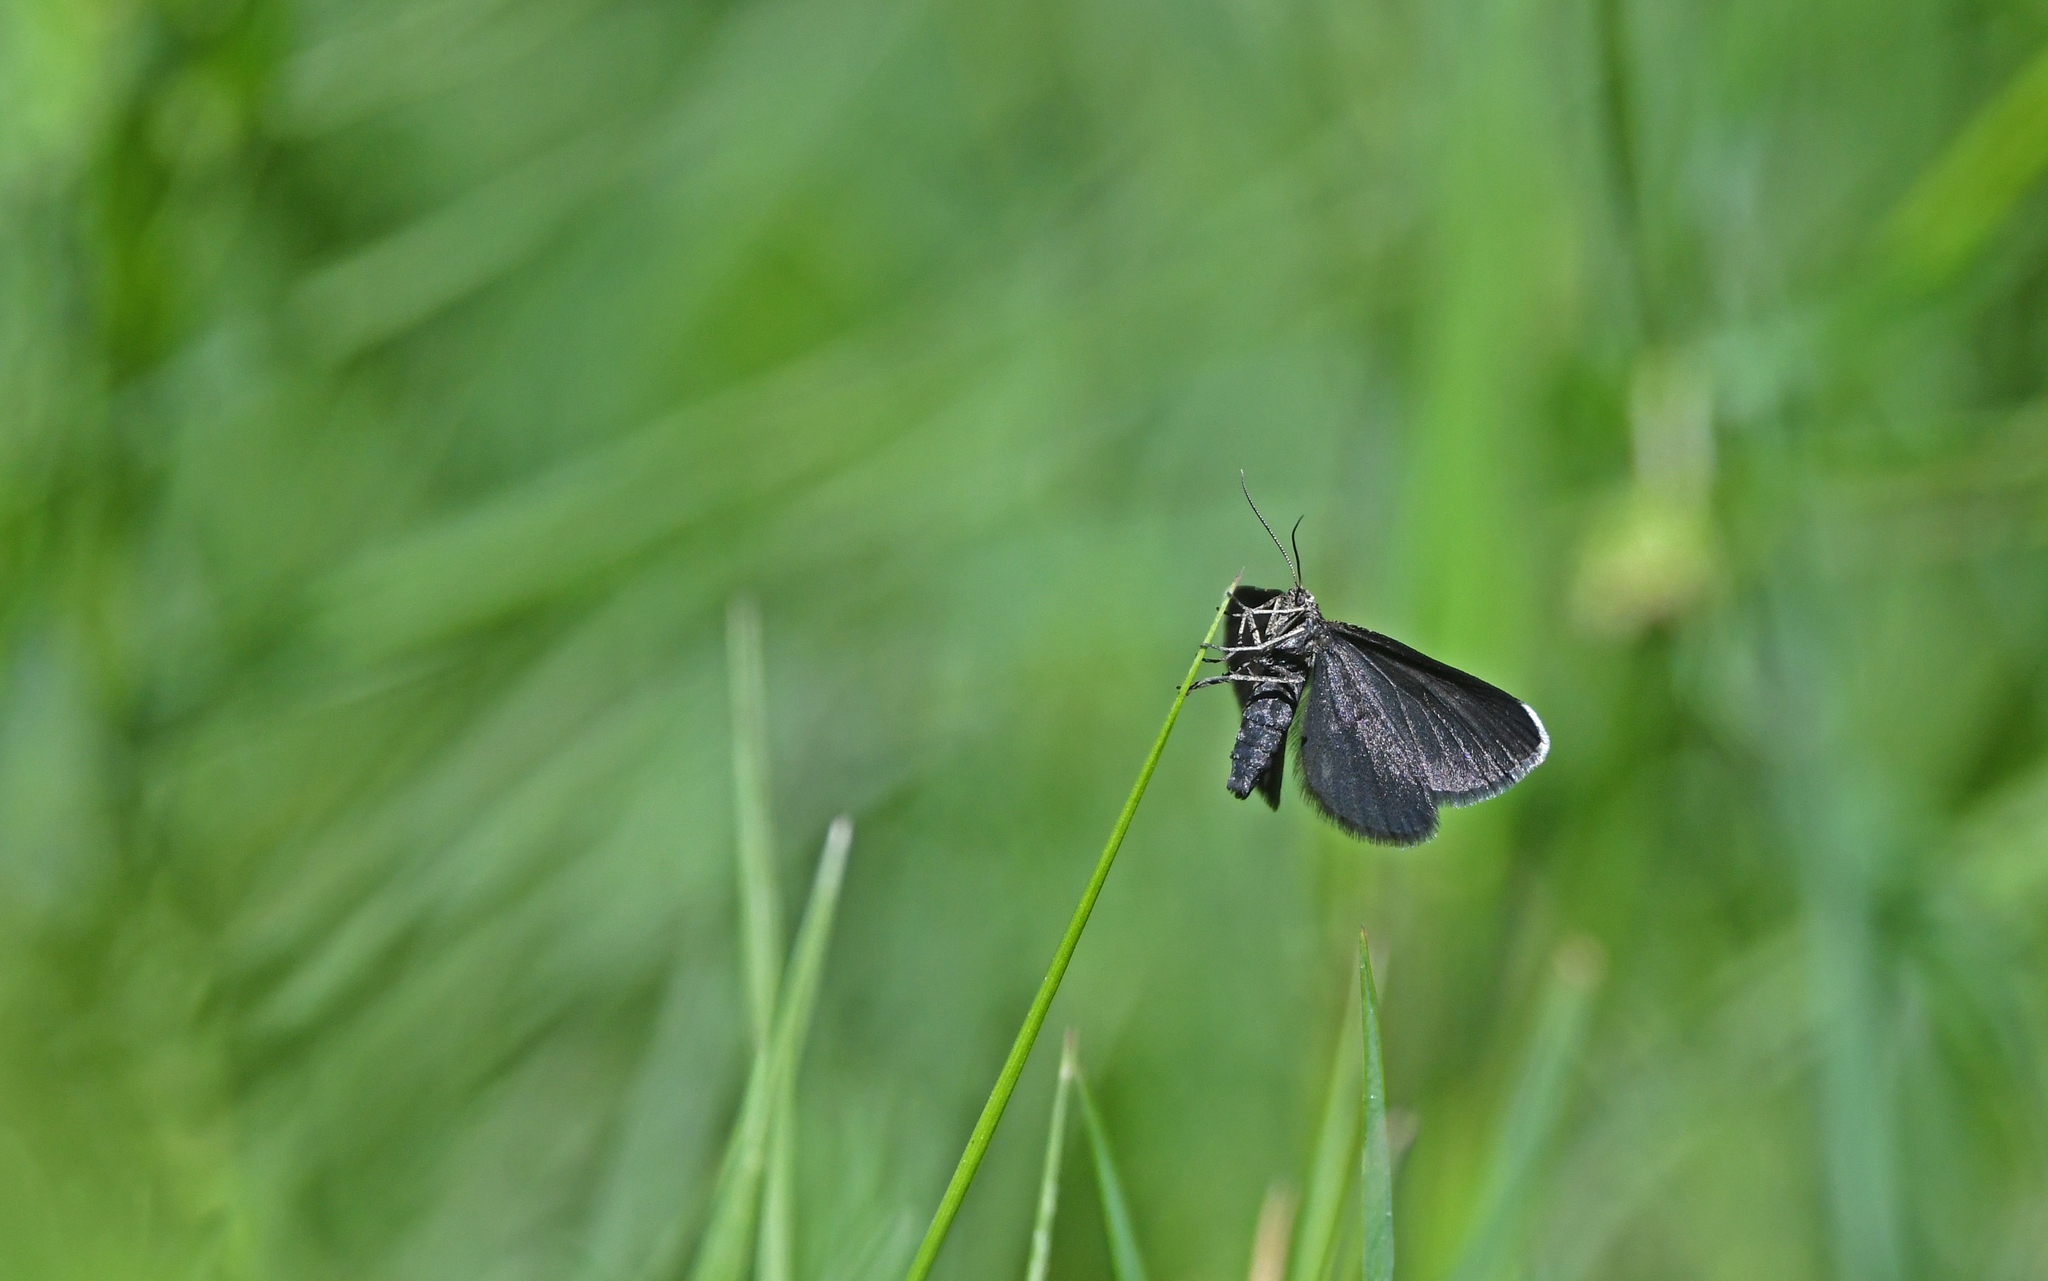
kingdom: Animalia
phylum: Arthropoda
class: Insecta
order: Lepidoptera
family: Geometridae
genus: Odezia
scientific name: Odezia atrata
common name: Chimney sweeper
